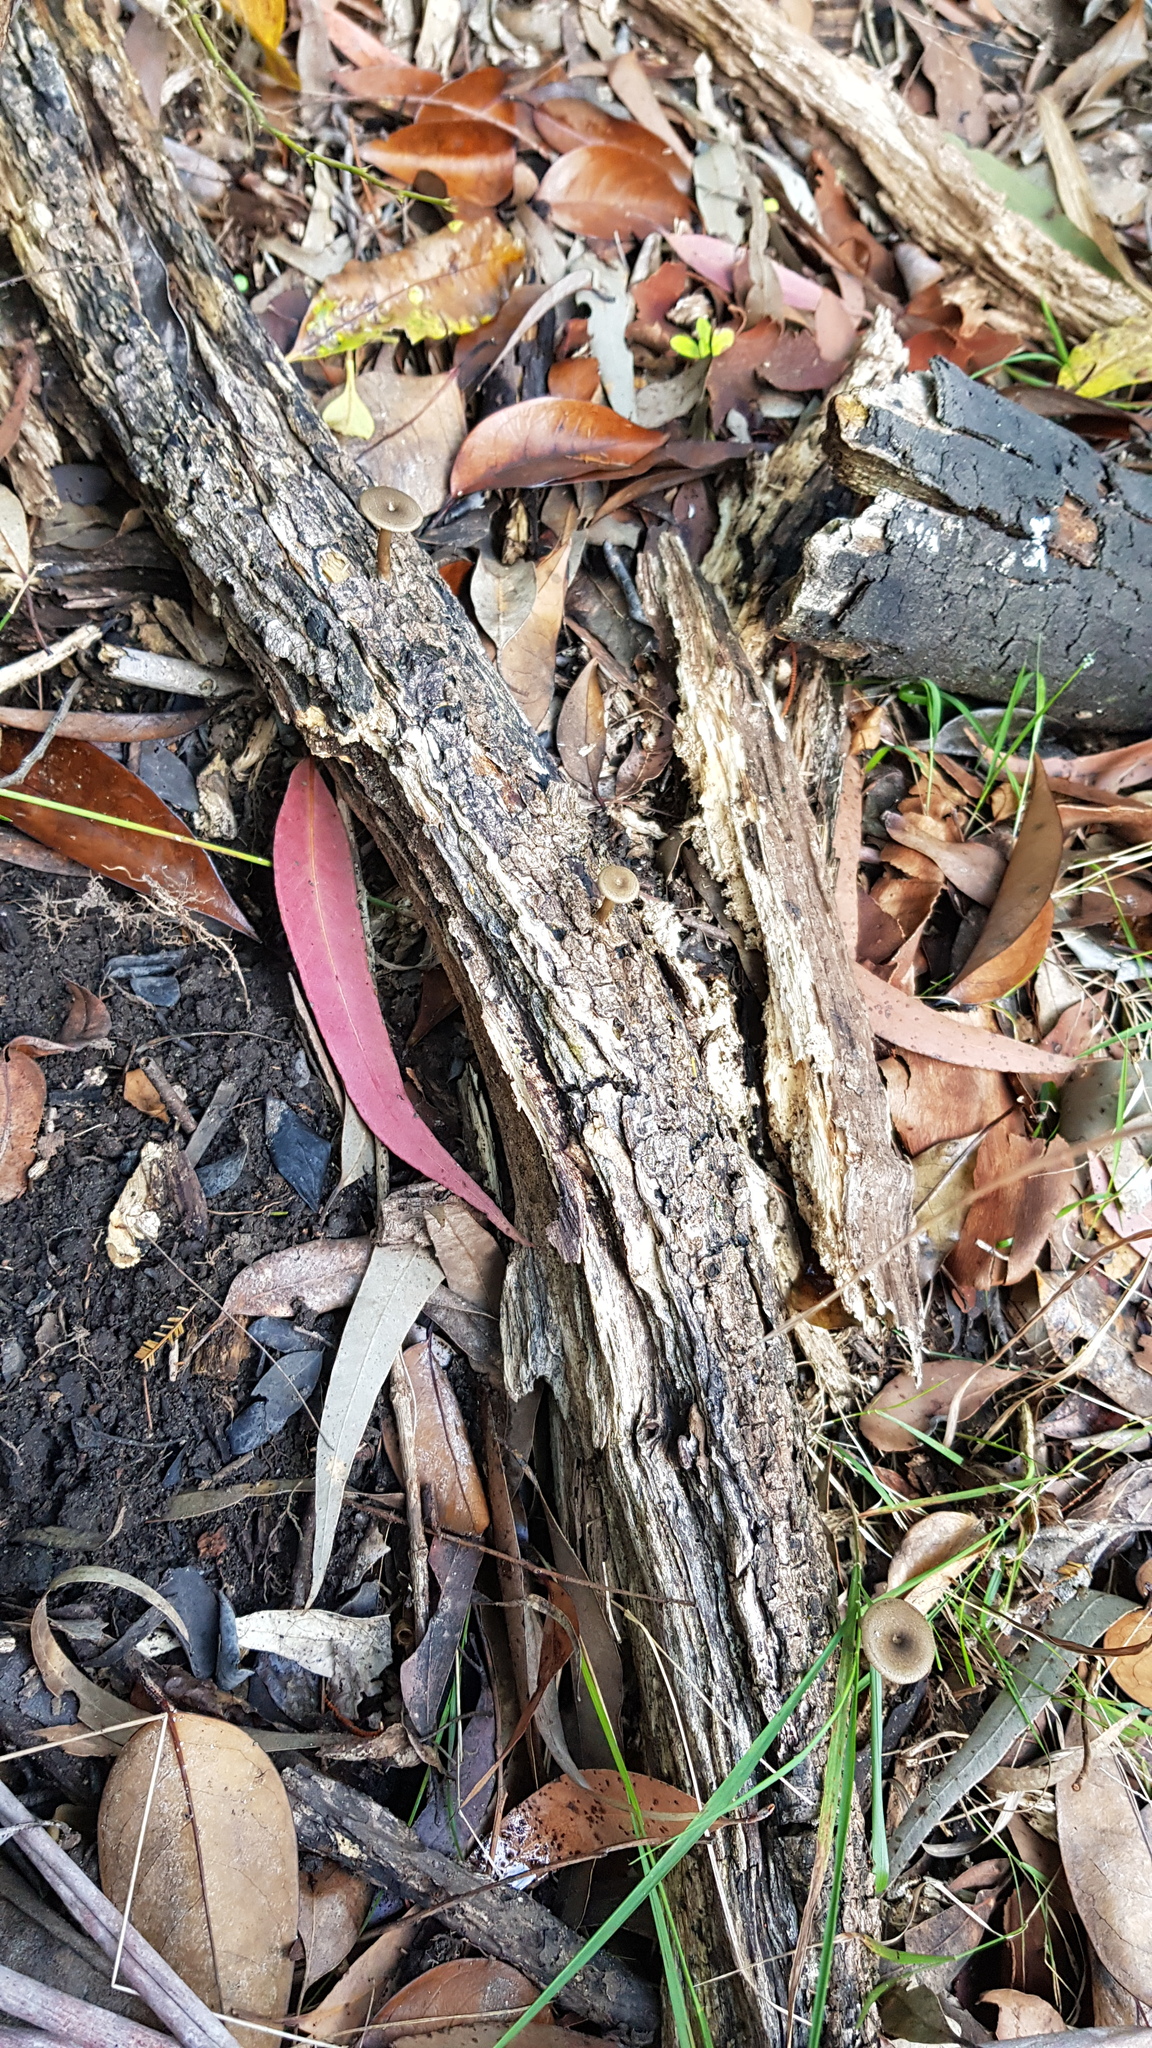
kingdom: Fungi
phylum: Basidiomycota
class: Agaricomycetes
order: Polyporales
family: Polyporaceae
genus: Lentinus
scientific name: Lentinus arcularius
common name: Spring polypore
